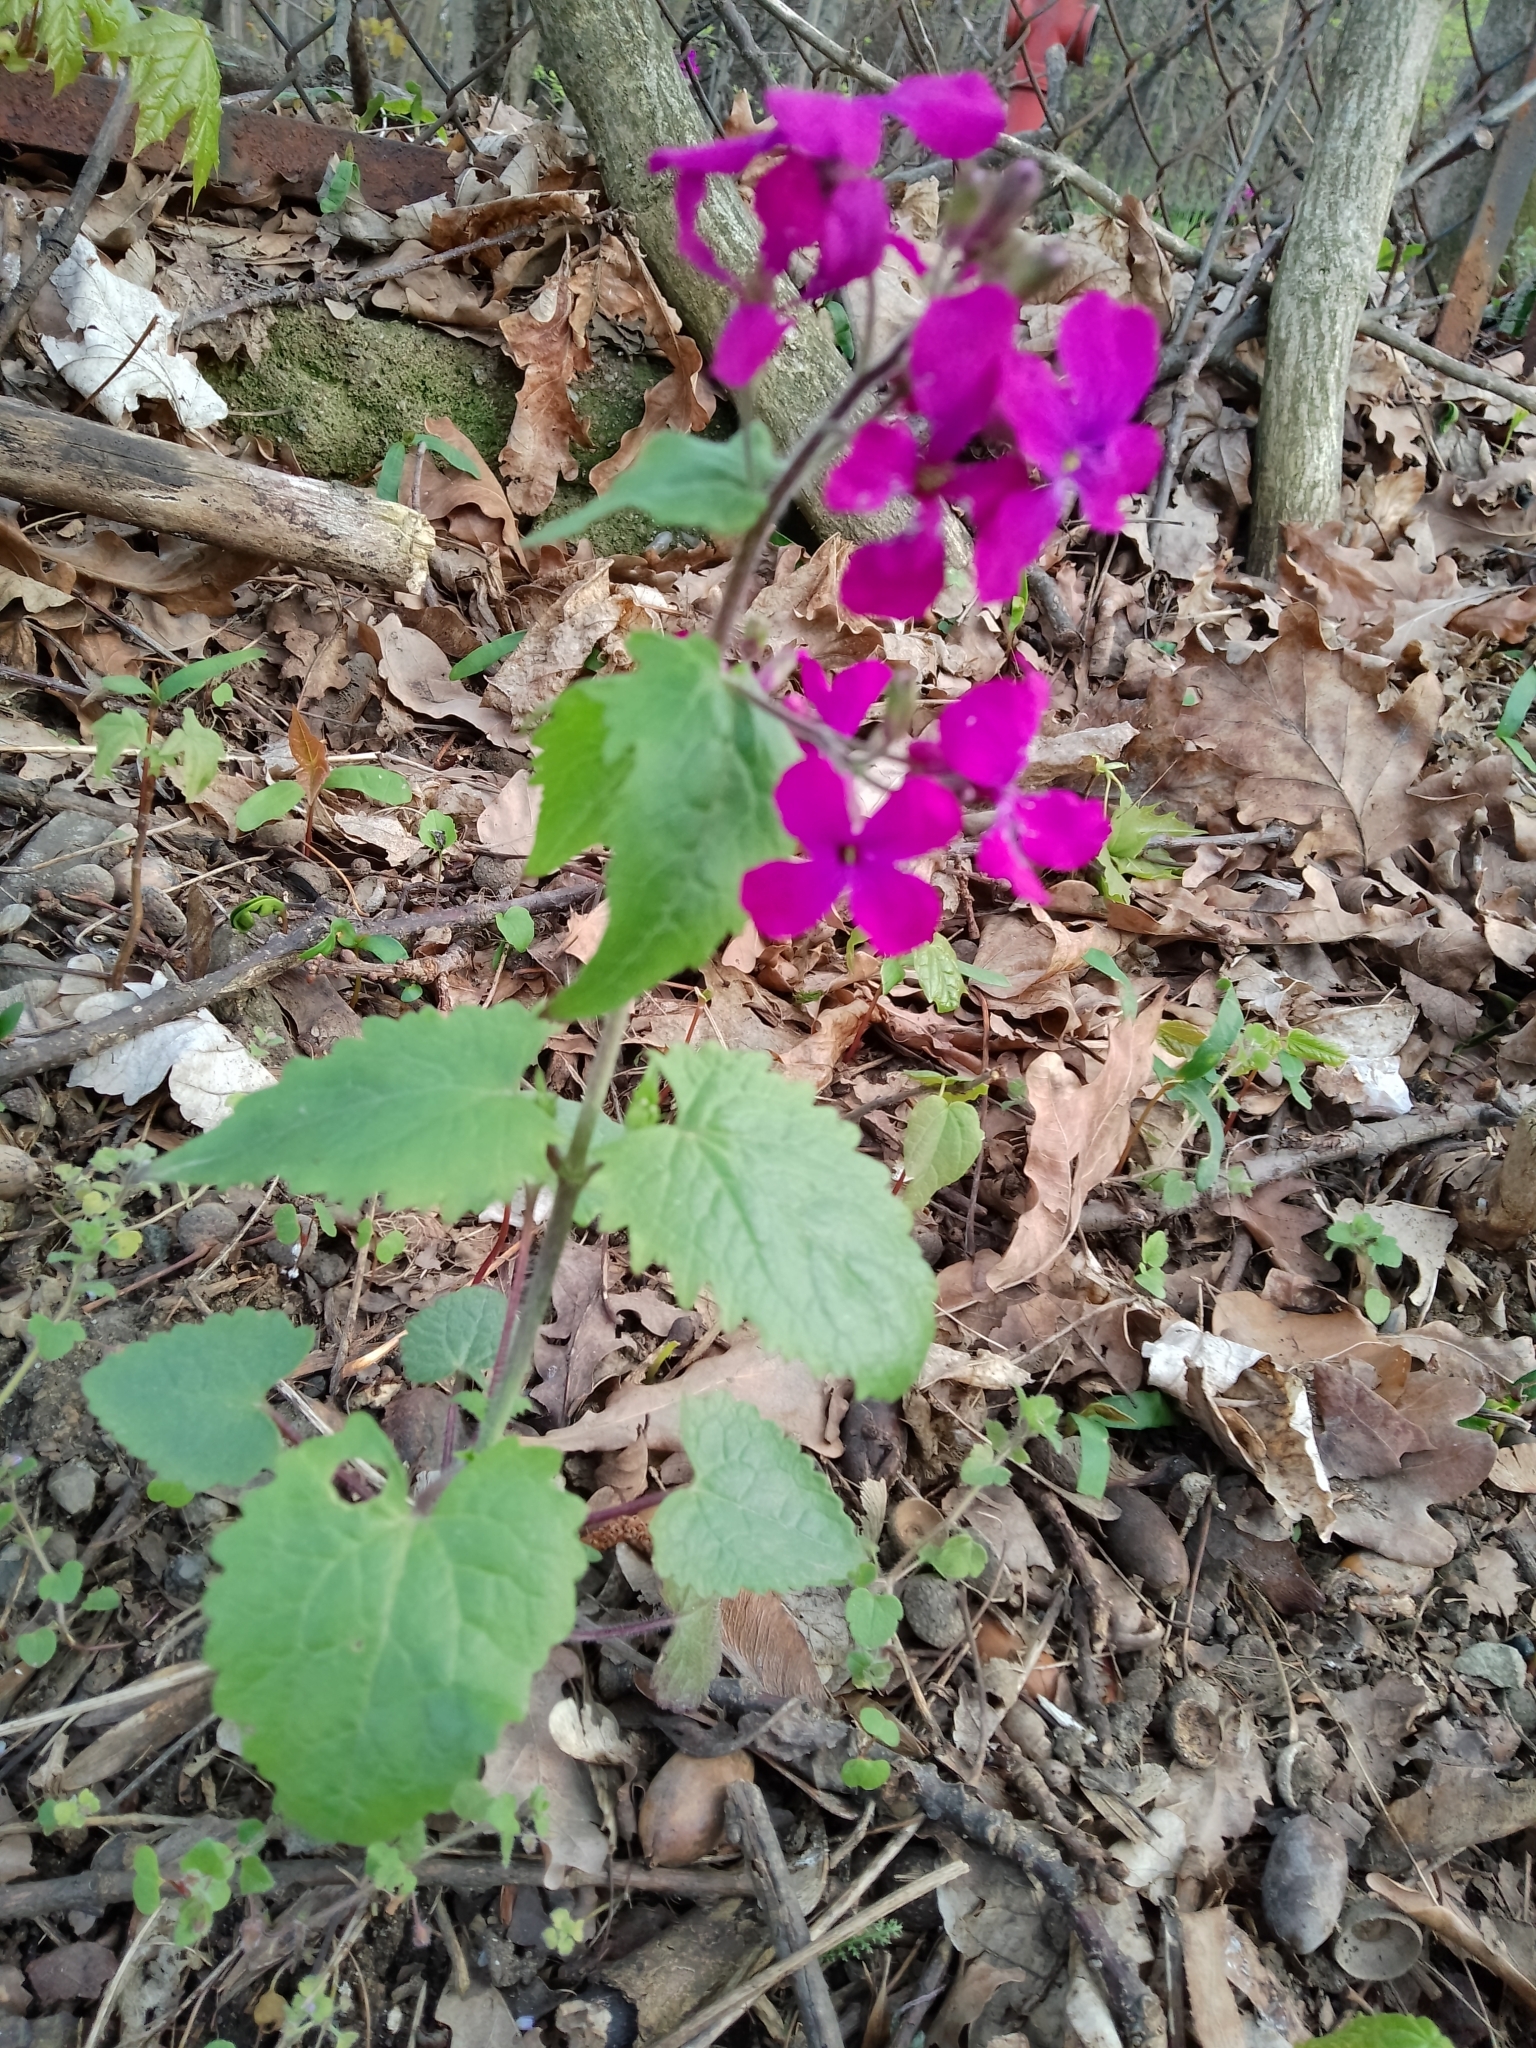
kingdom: Plantae
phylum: Tracheophyta
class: Magnoliopsida
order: Brassicales
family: Brassicaceae
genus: Lunaria
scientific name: Lunaria annua
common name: Honesty
